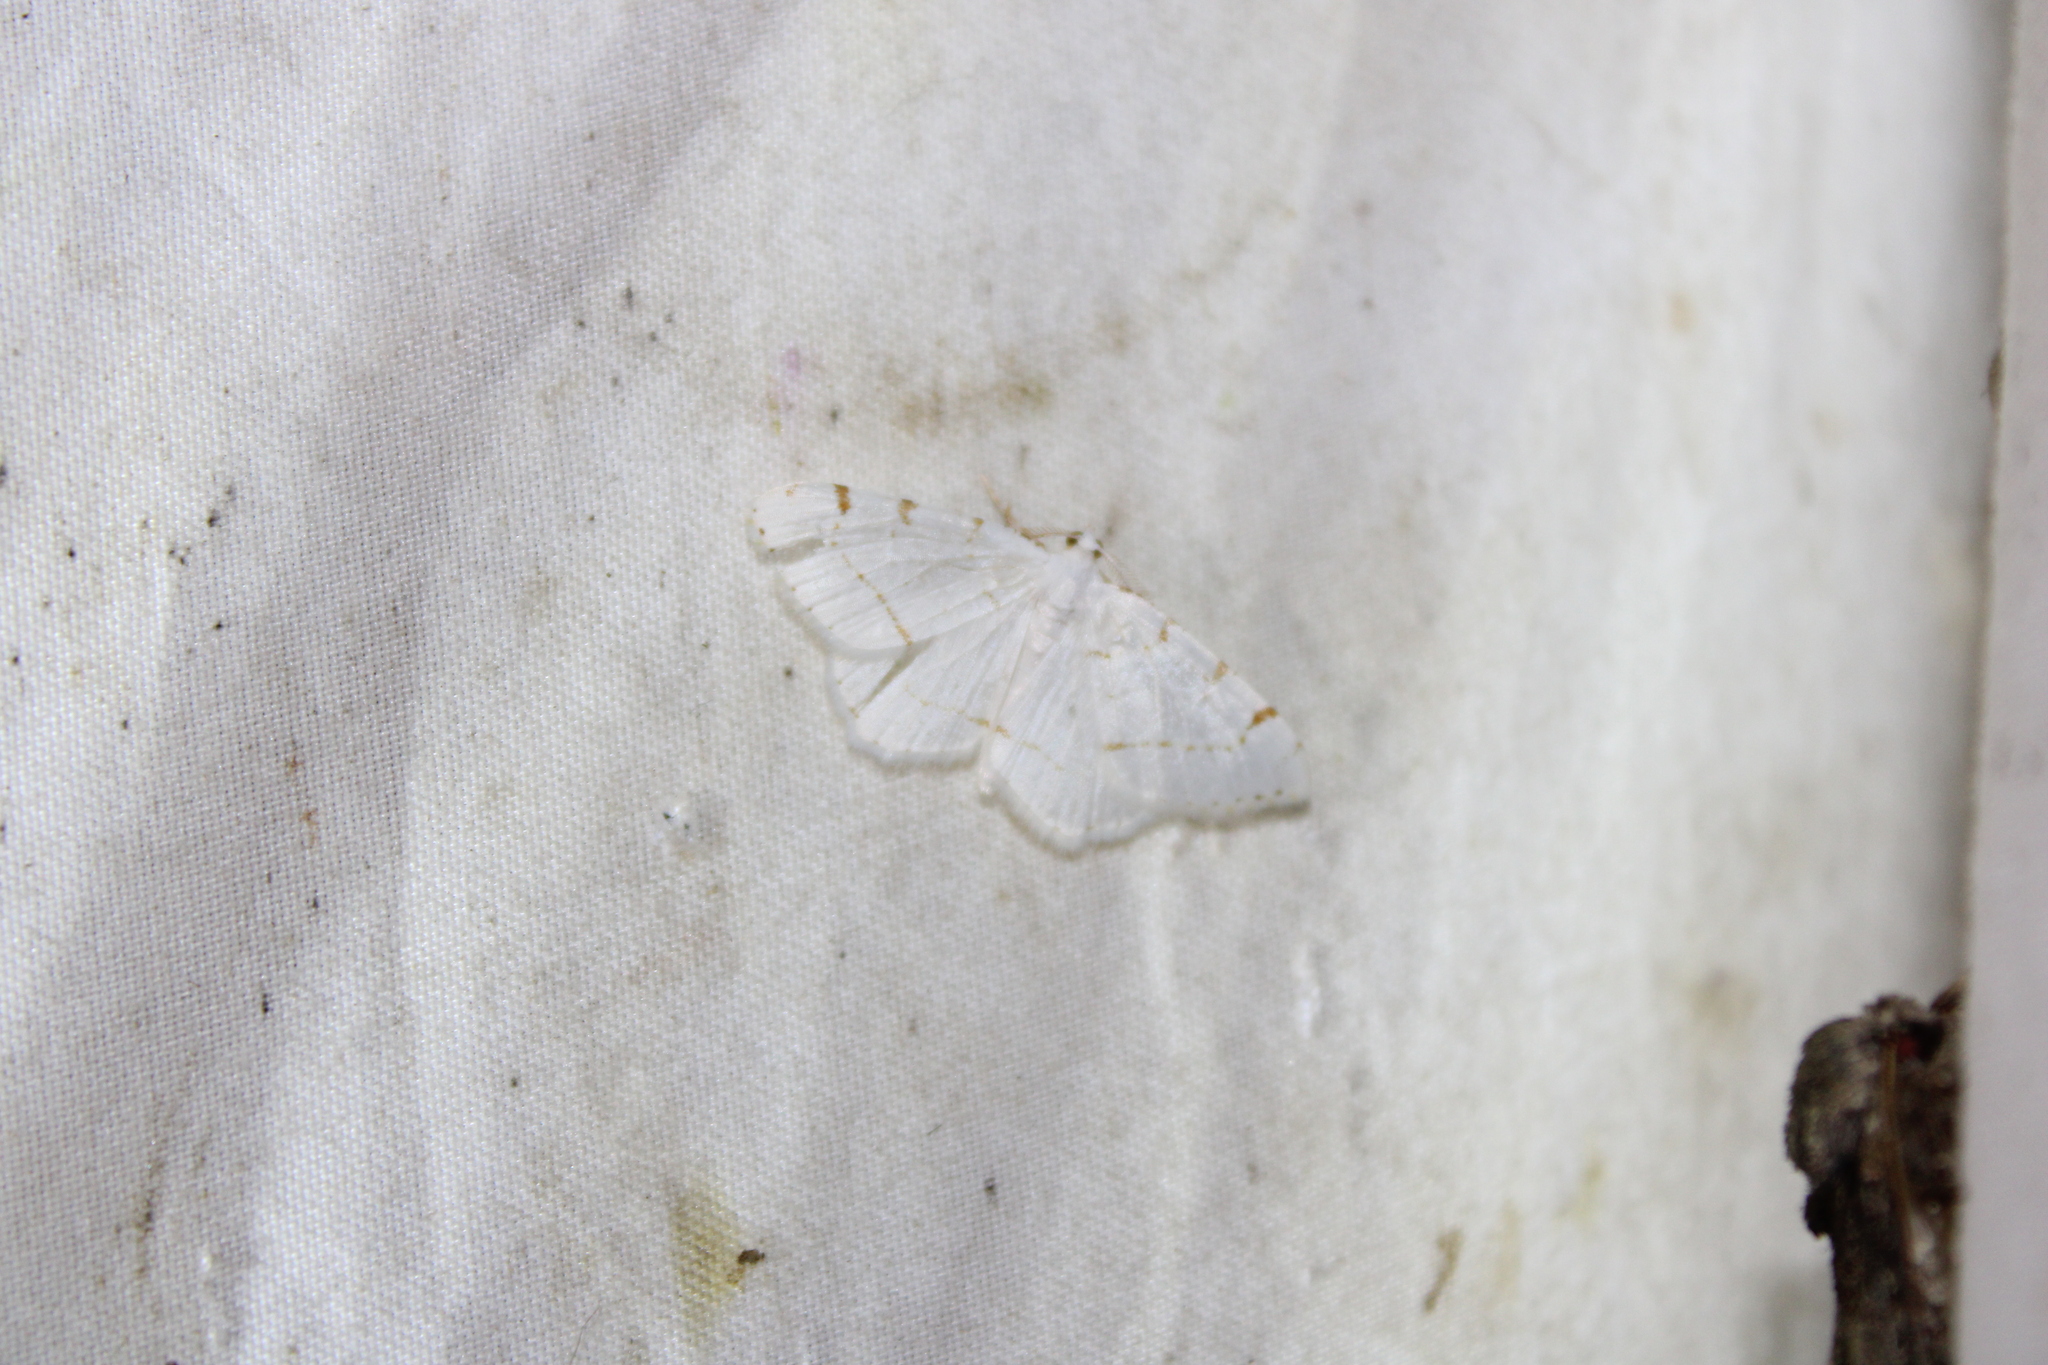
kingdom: Animalia
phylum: Arthropoda
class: Insecta
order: Lepidoptera
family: Geometridae
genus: Macaria
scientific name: Macaria pustularia
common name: Lesser maple spanworm moth
